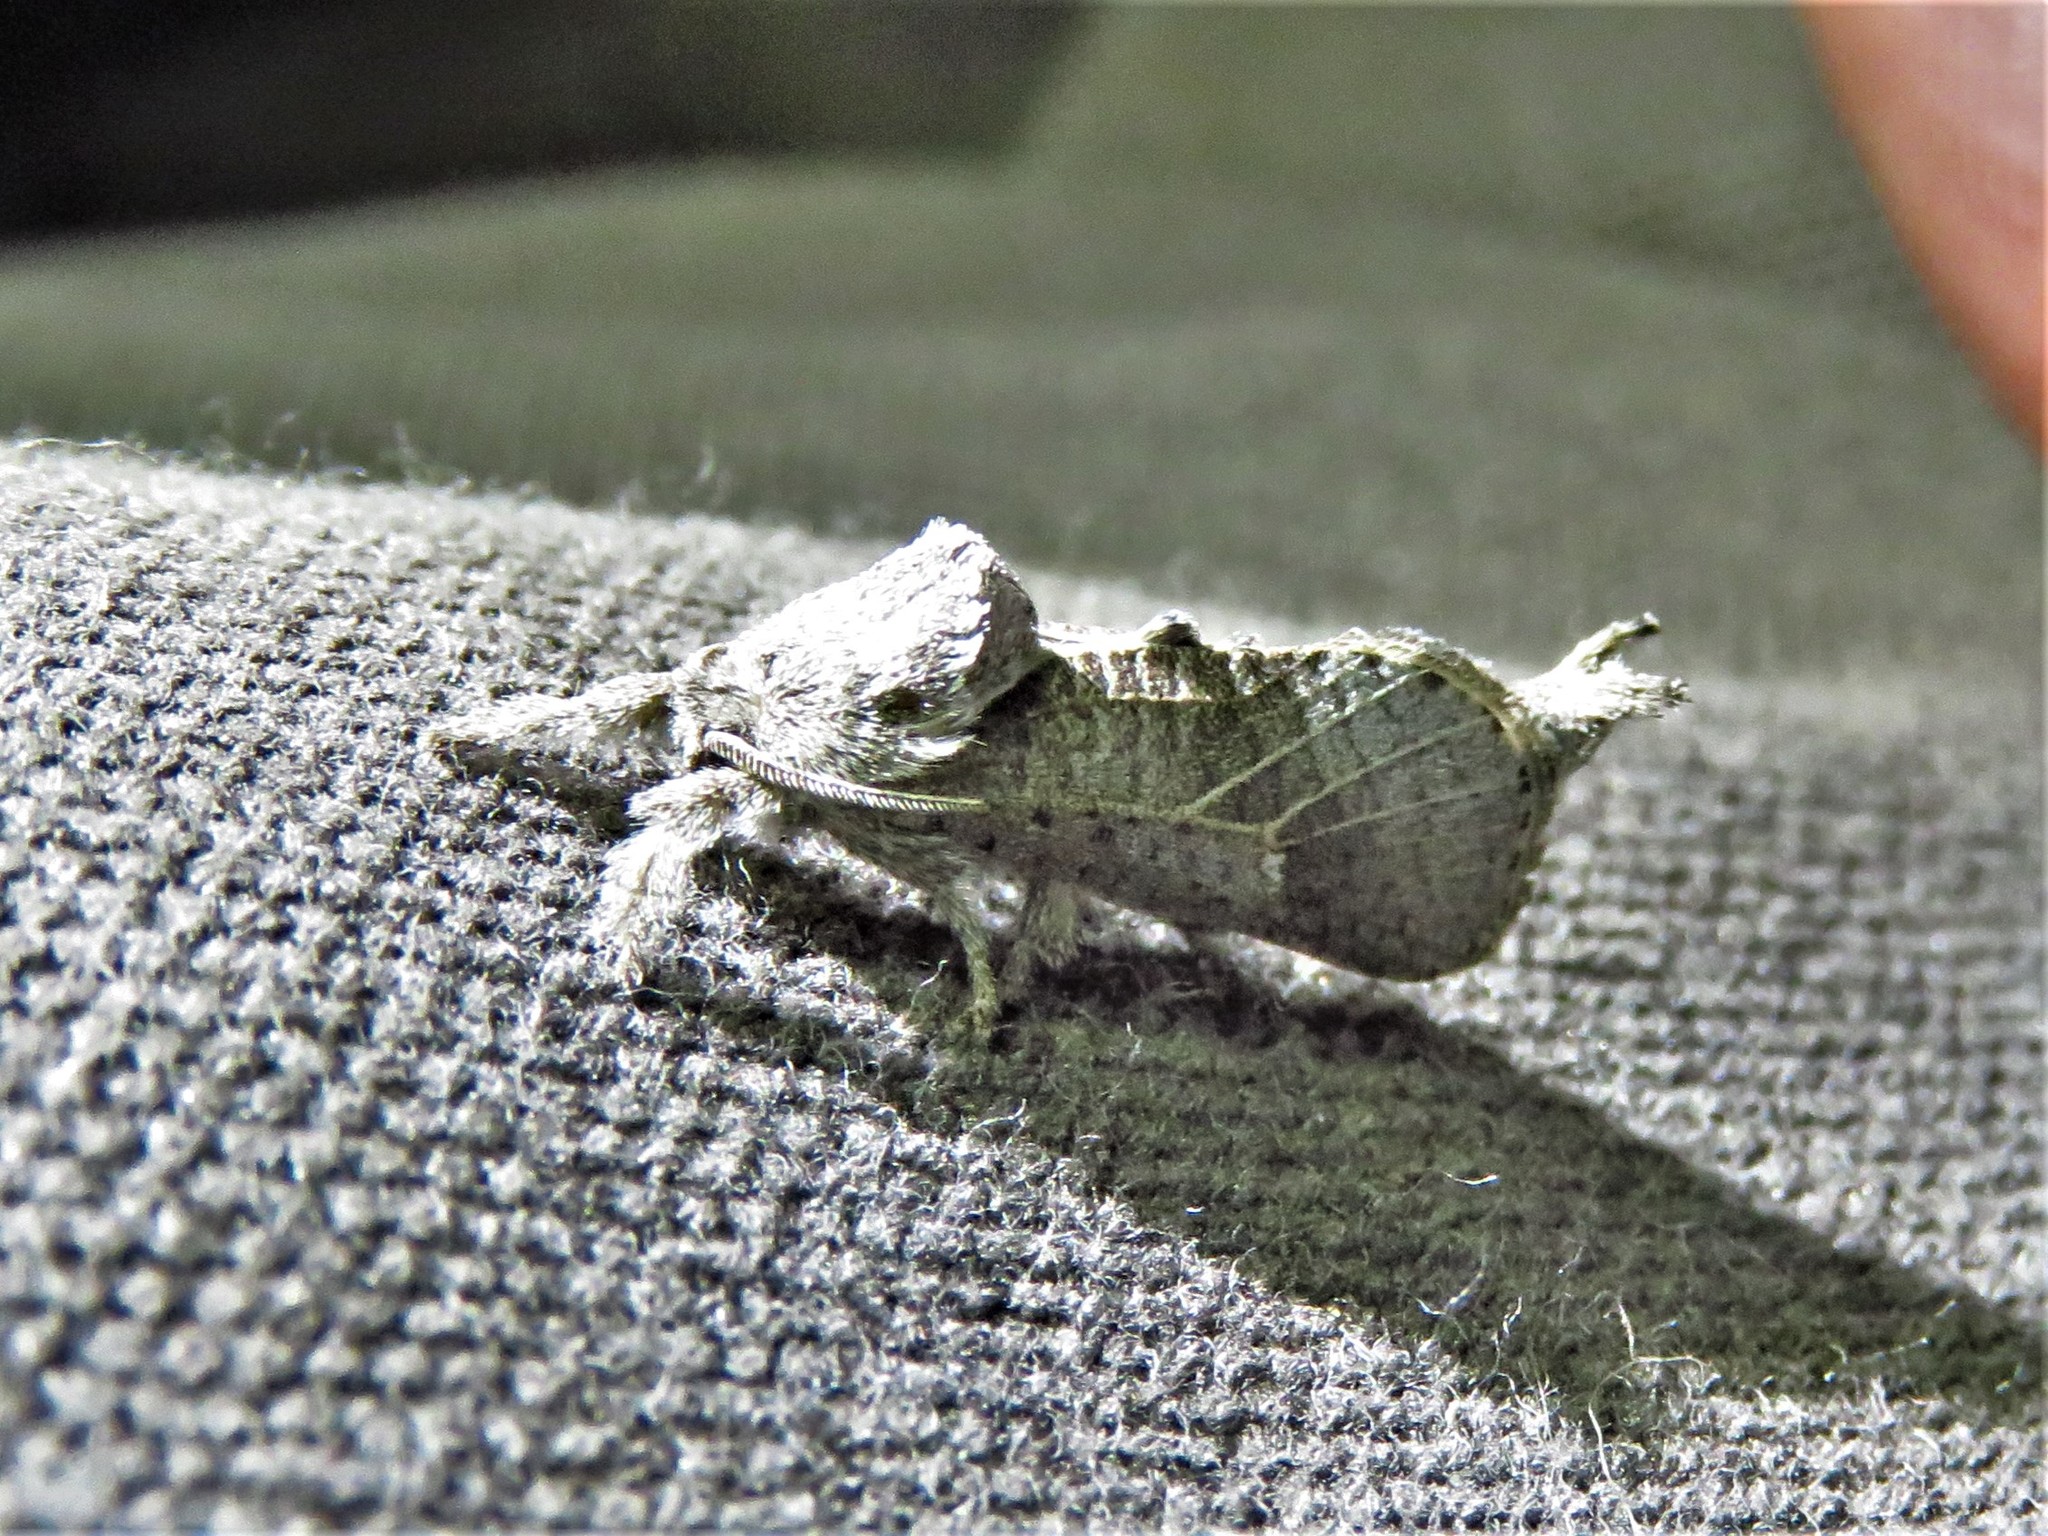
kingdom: Animalia
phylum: Arthropoda
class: Insecta
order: Lepidoptera
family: Cossidae
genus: Givira
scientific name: Givira anna
